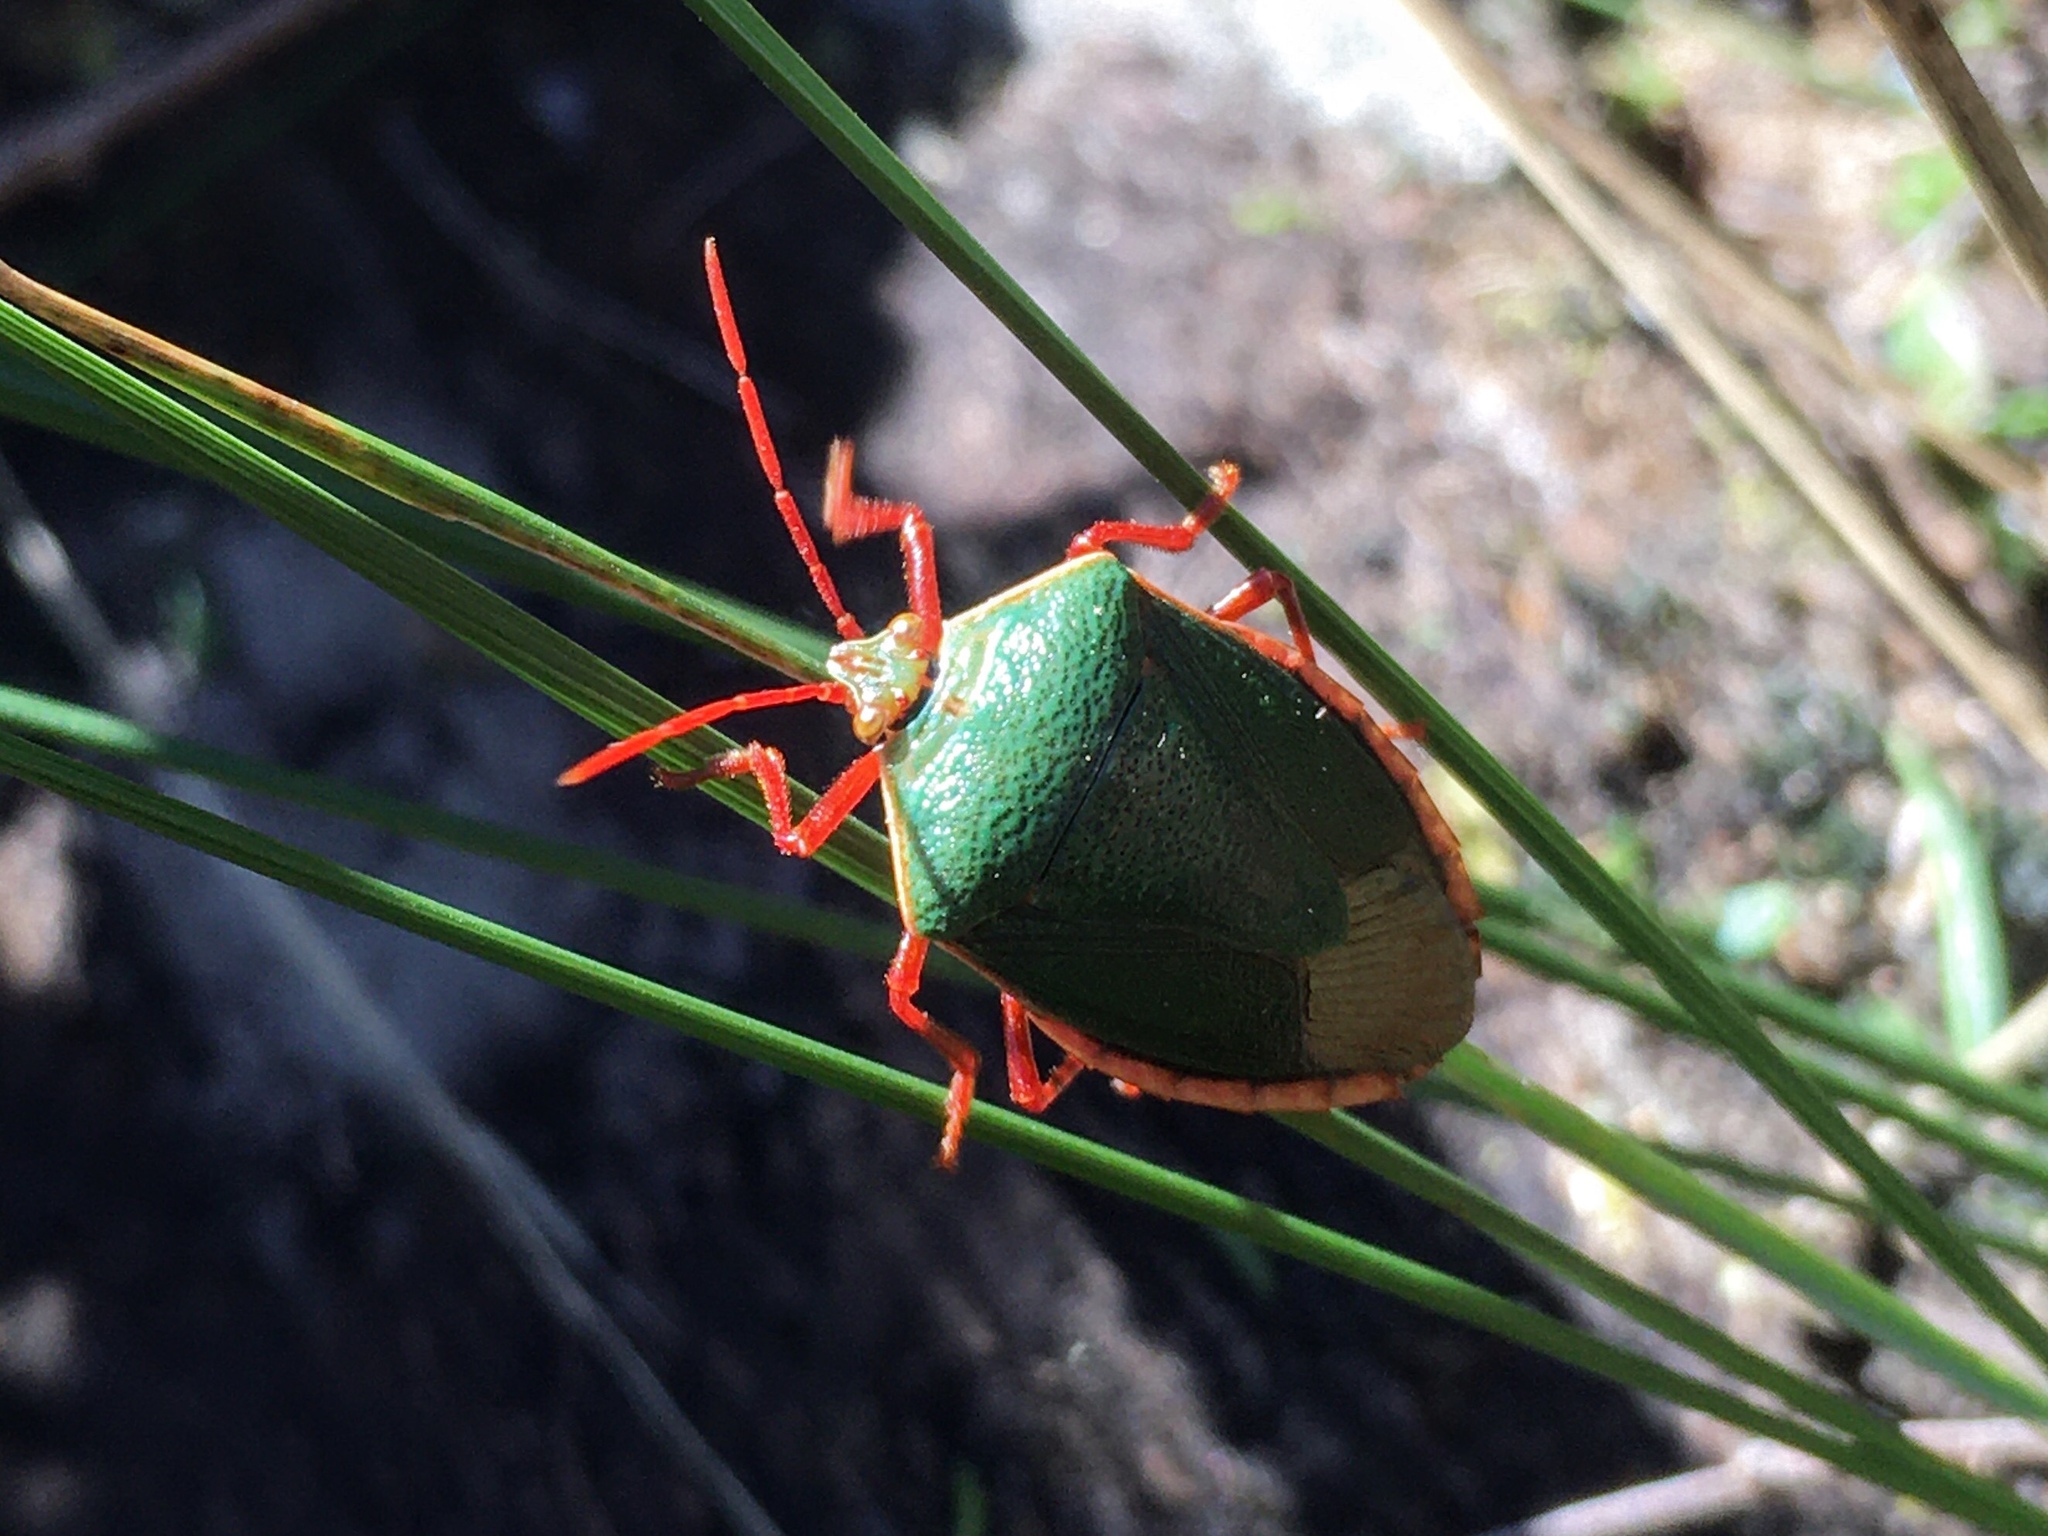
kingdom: Animalia
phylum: Arthropoda
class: Insecta
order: Hemiptera
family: Pentatomidae
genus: Edessa
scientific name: Edessa rufomarginata
